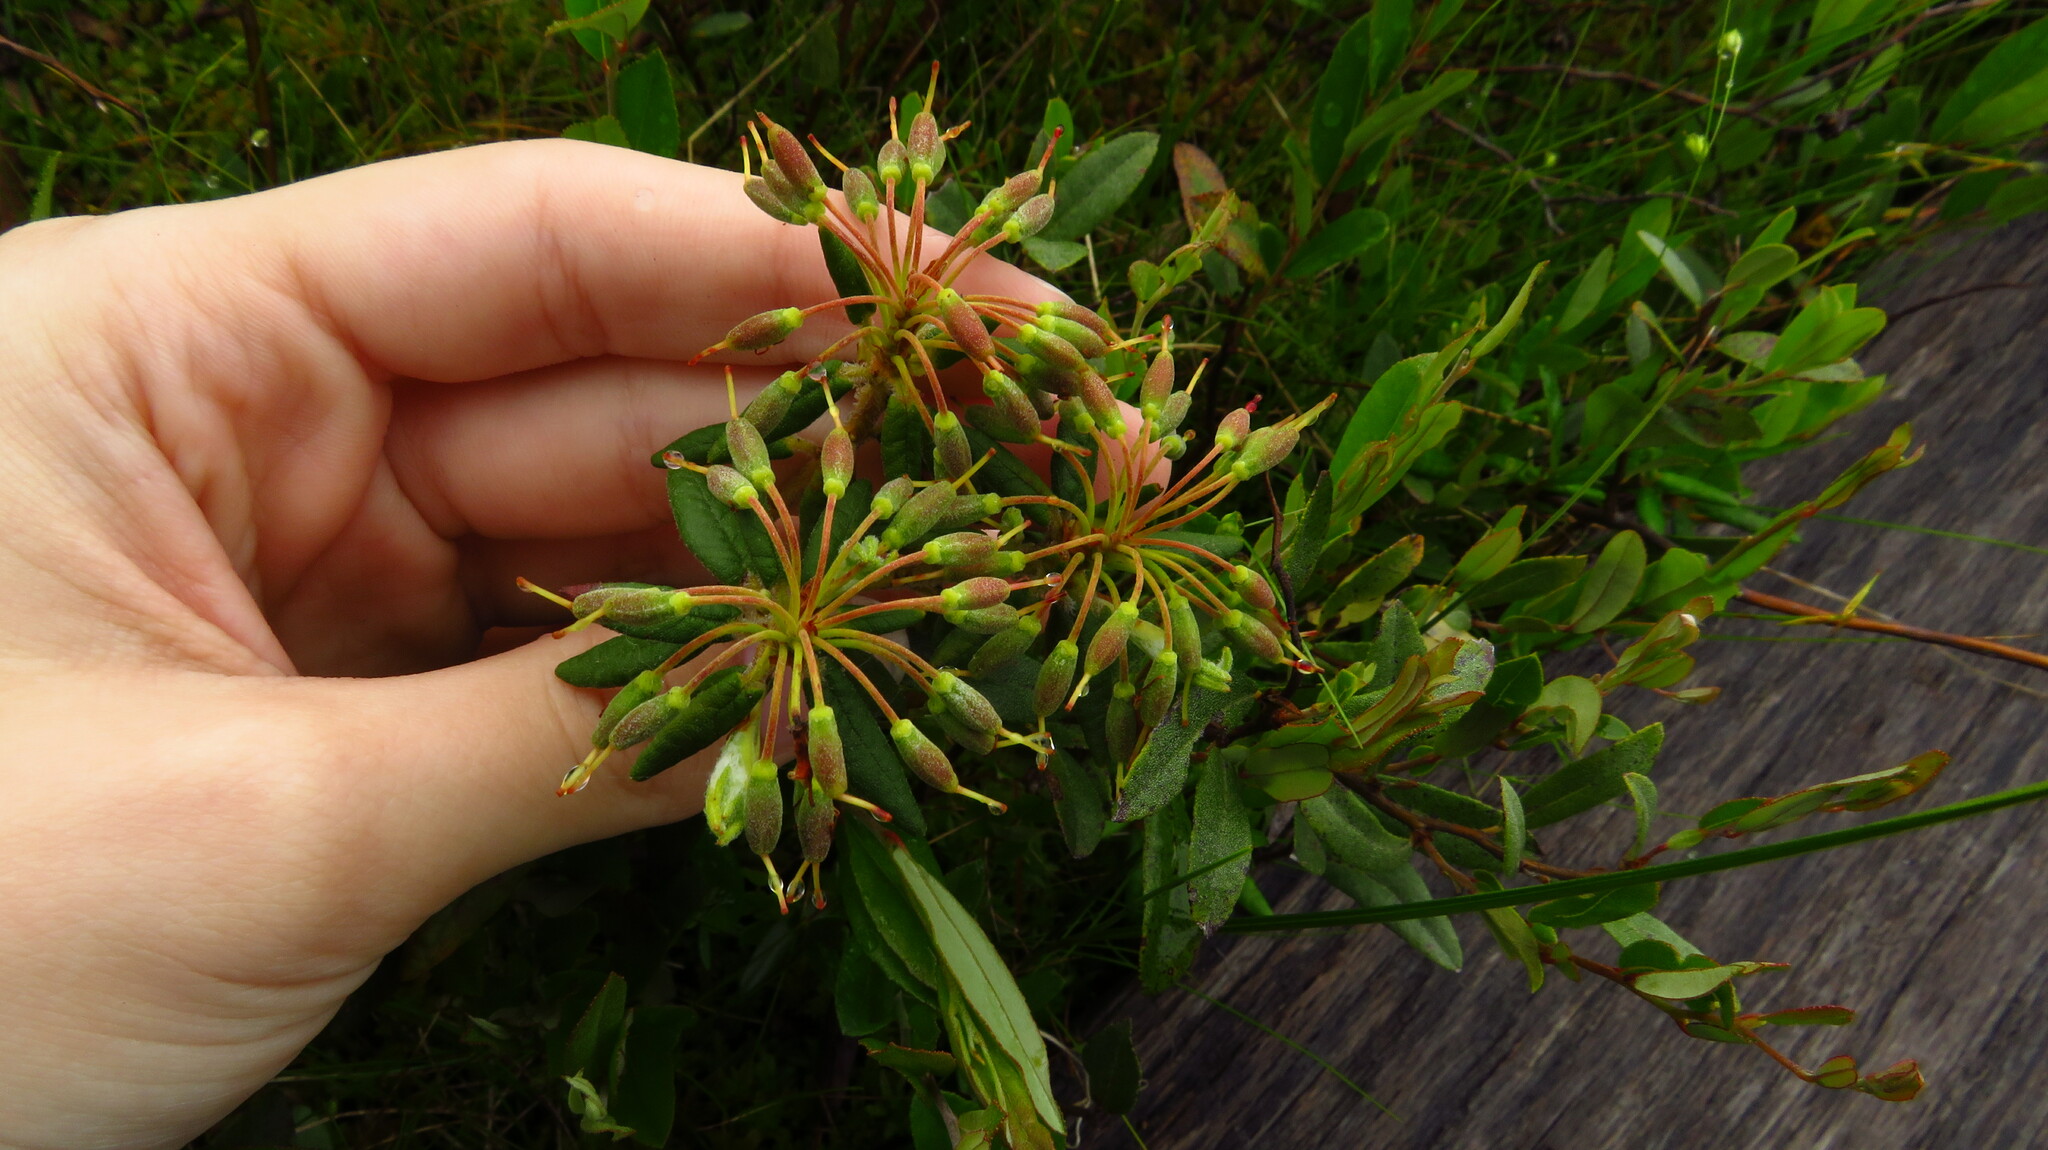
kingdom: Plantae
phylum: Tracheophyta
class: Magnoliopsida
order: Ericales
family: Ericaceae
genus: Rhododendron
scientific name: Rhododendron groenlandicum
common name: Bog labrador tea
